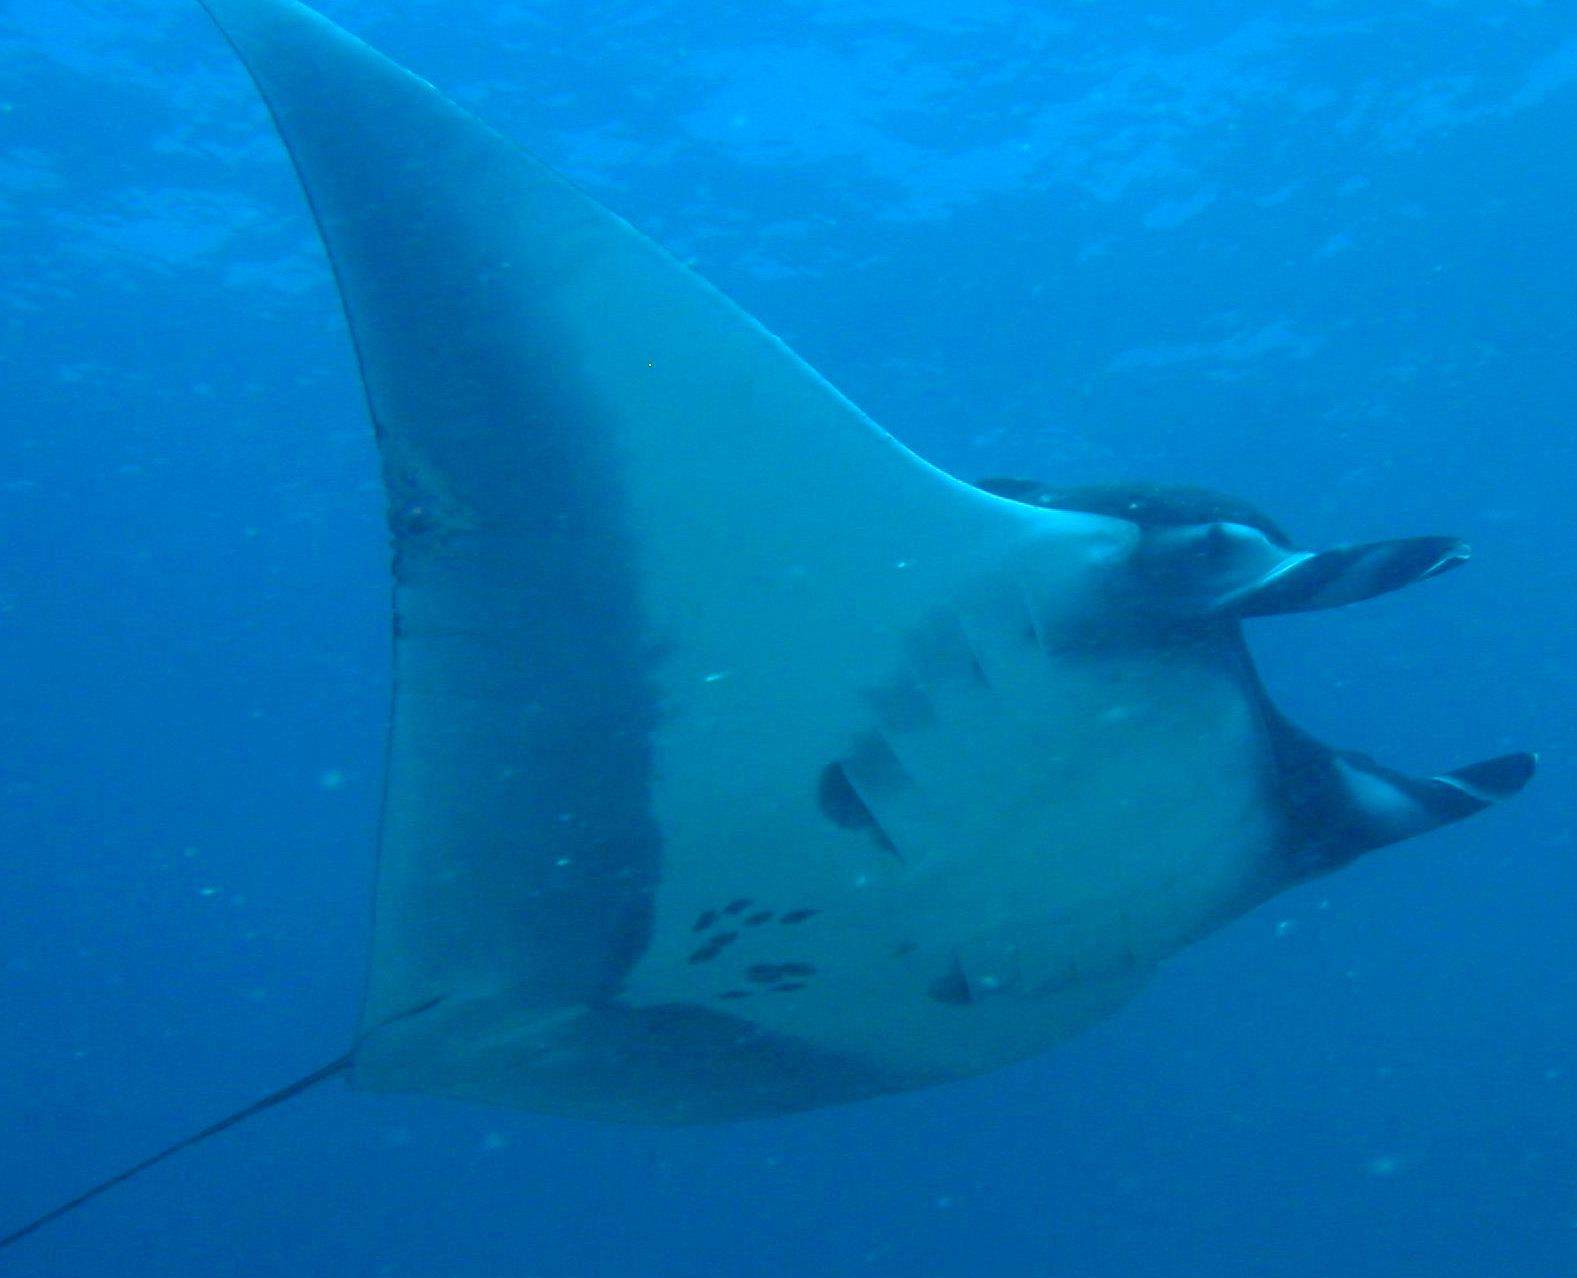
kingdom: Animalia
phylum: Chordata
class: Elasmobranchii
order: Myliobatiformes
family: Myliobatidae
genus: Mobula
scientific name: Mobula birostris
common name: Manta ray
